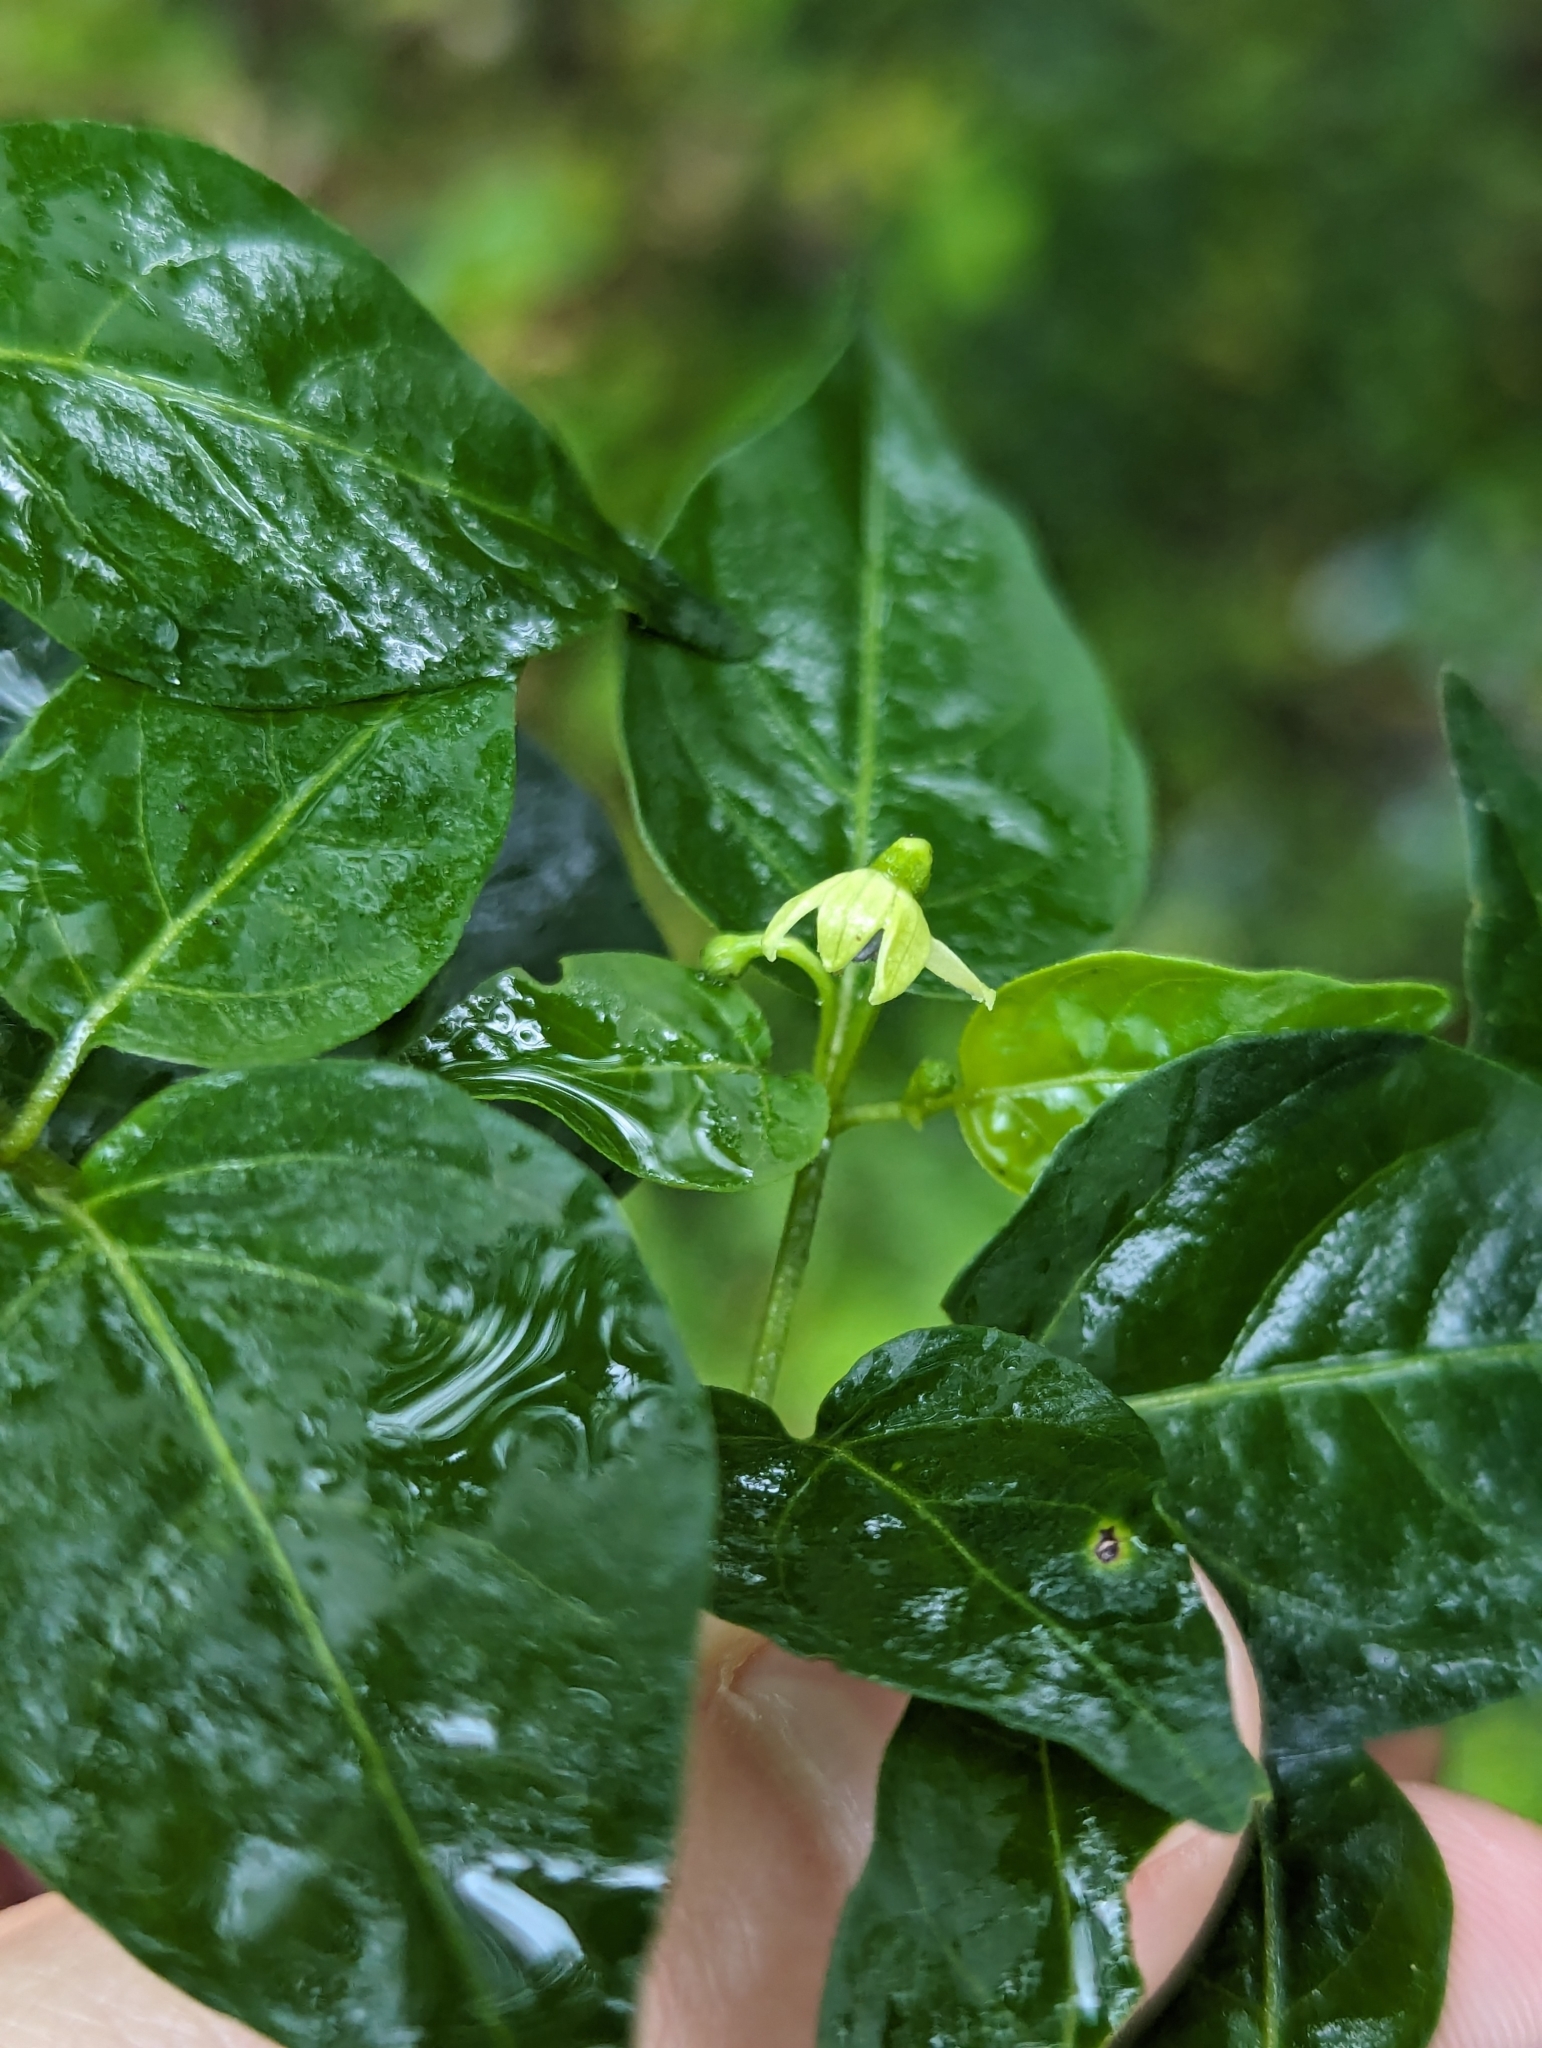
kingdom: Plantae
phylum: Tracheophyta
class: Magnoliopsida
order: Solanales
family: Solanaceae
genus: Capsicum
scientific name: Capsicum frutescens
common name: Bird pepper
